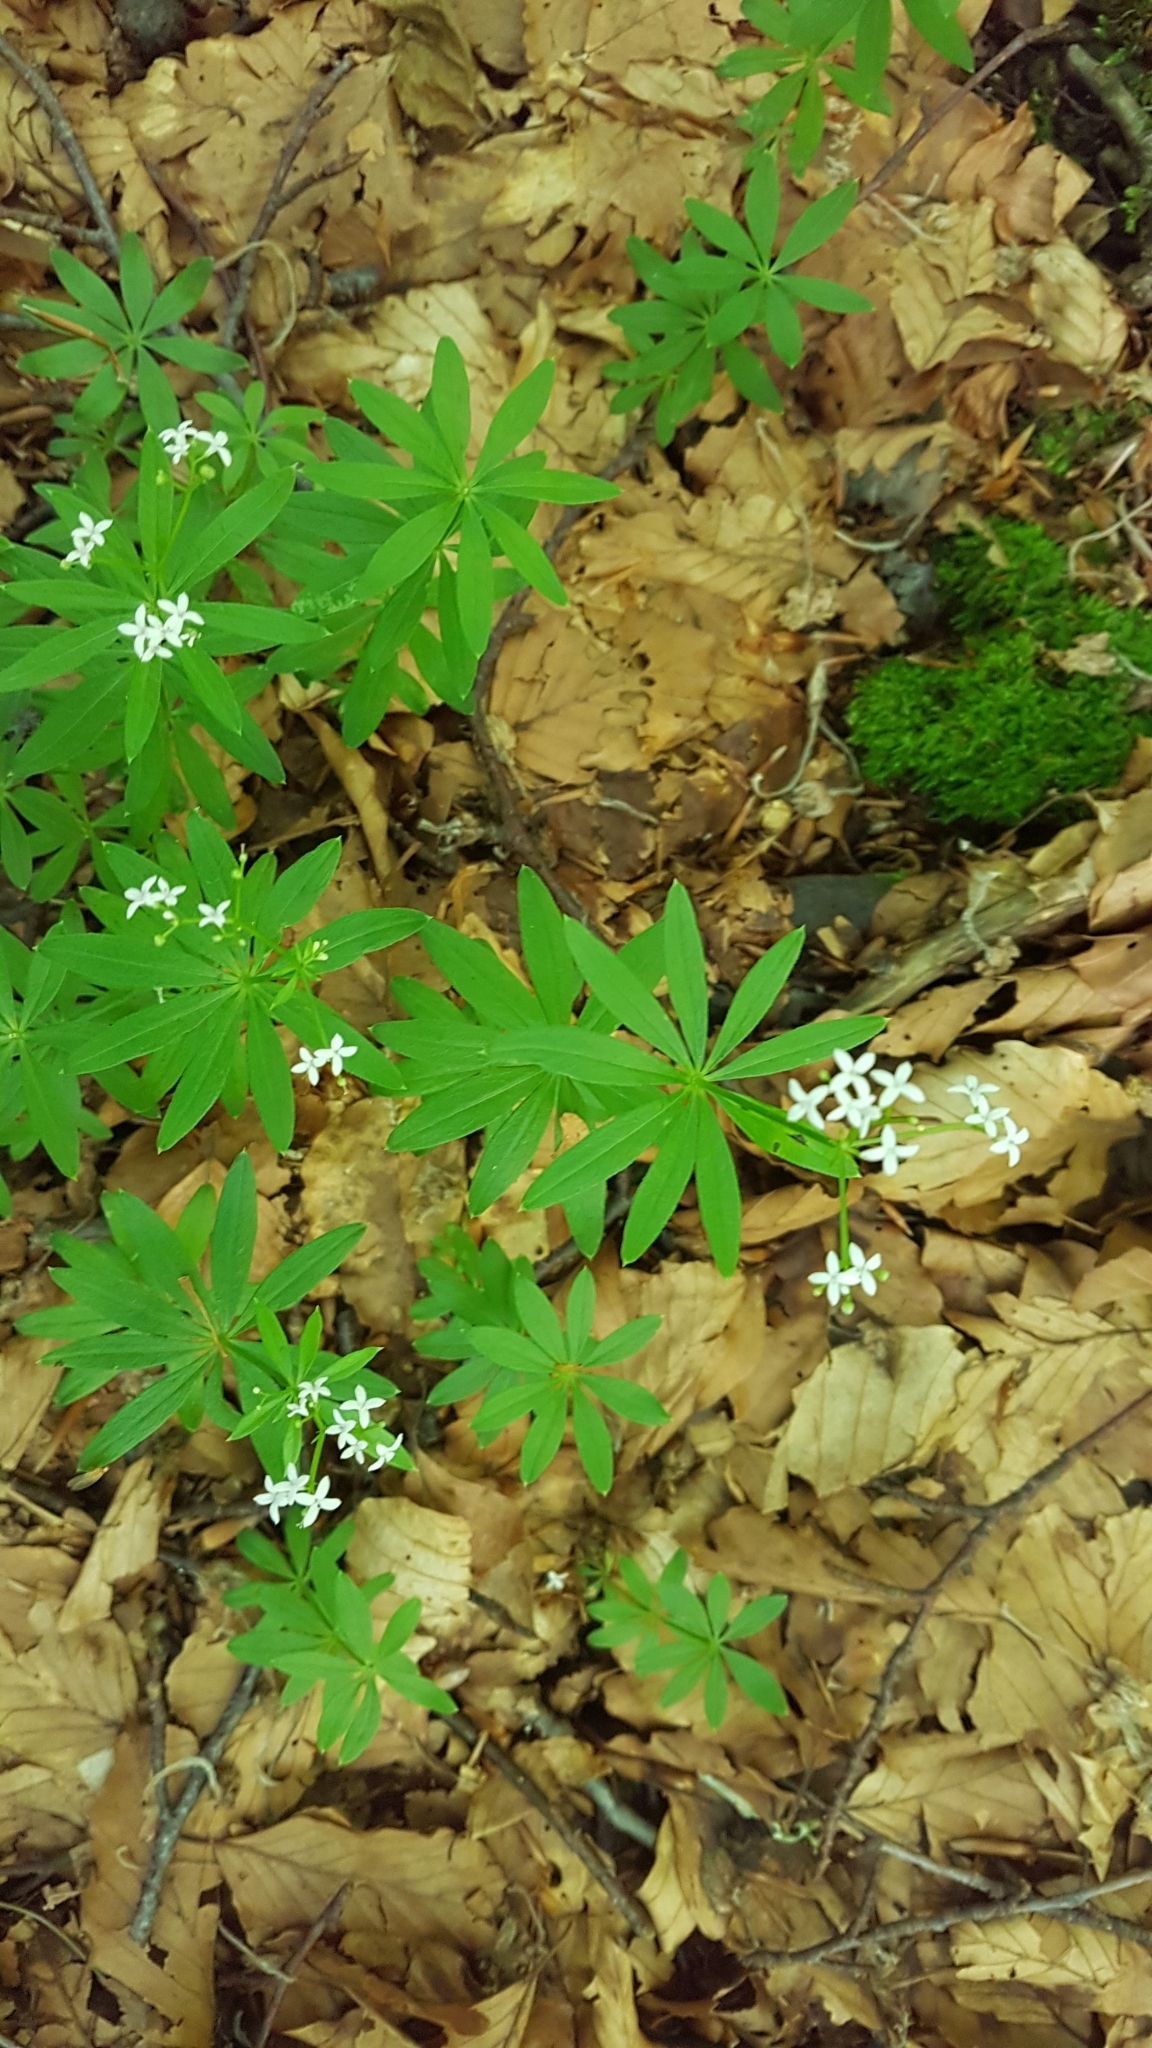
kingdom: Plantae
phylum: Tracheophyta
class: Magnoliopsida
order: Gentianales
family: Rubiaceae
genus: Galium
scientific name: Galium odoratum
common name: Sweet woodruff
